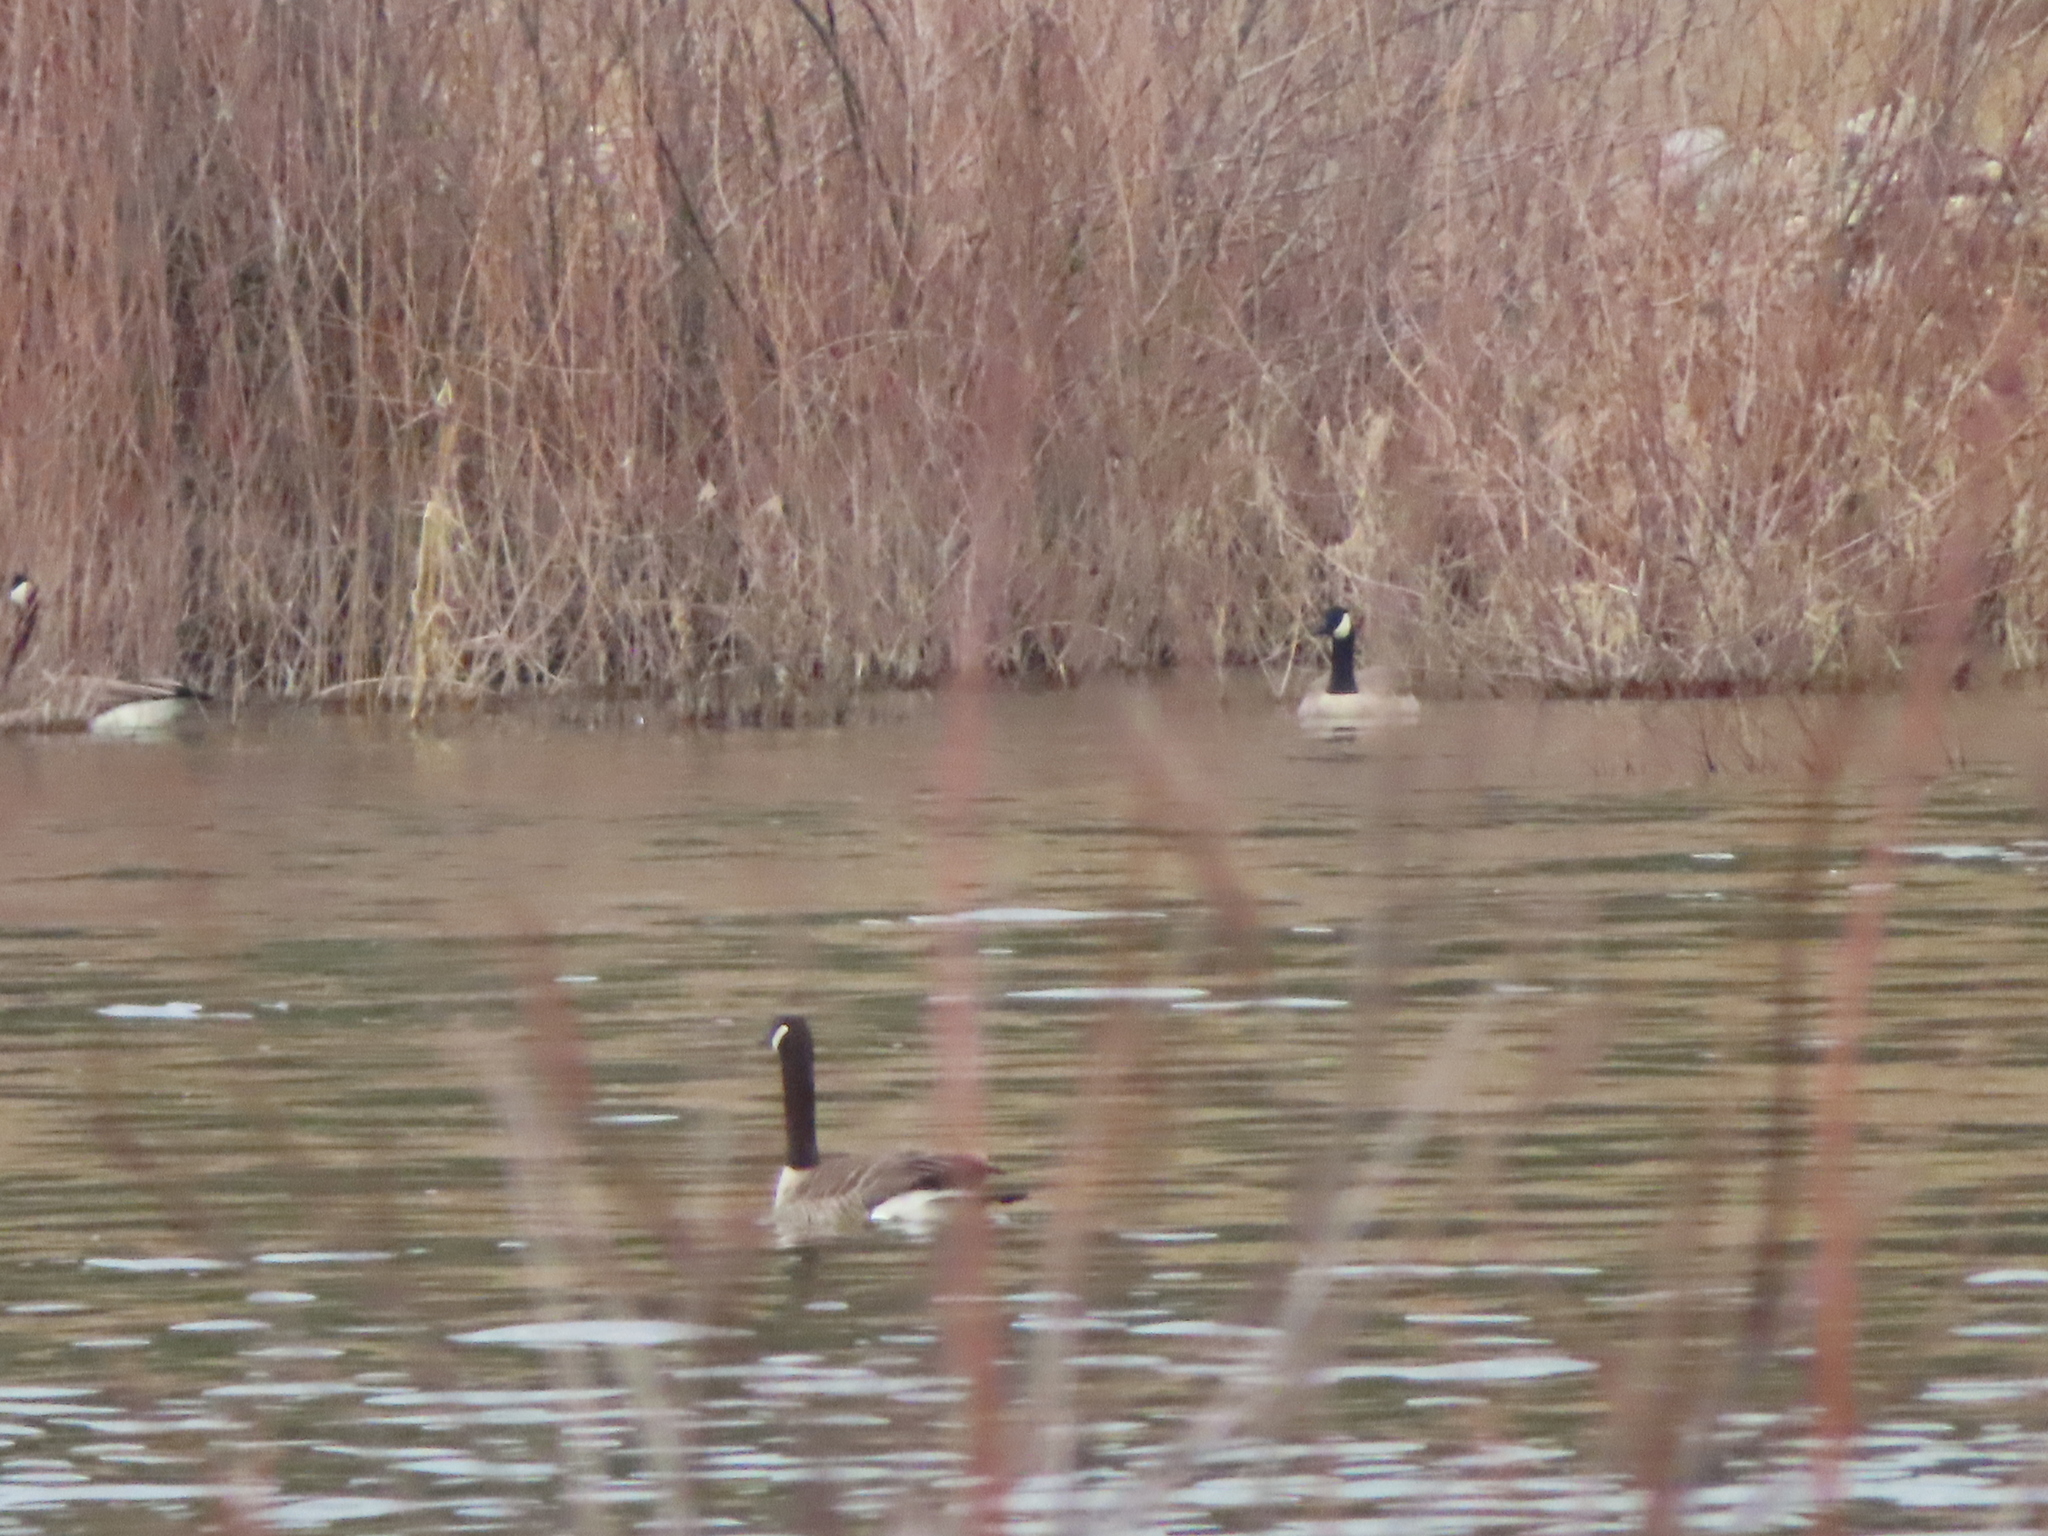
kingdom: Animalia
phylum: Chordata
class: Aves
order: Anseriformes
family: Anatidae
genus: Branta
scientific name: Branta canadensis
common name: Canada goose
